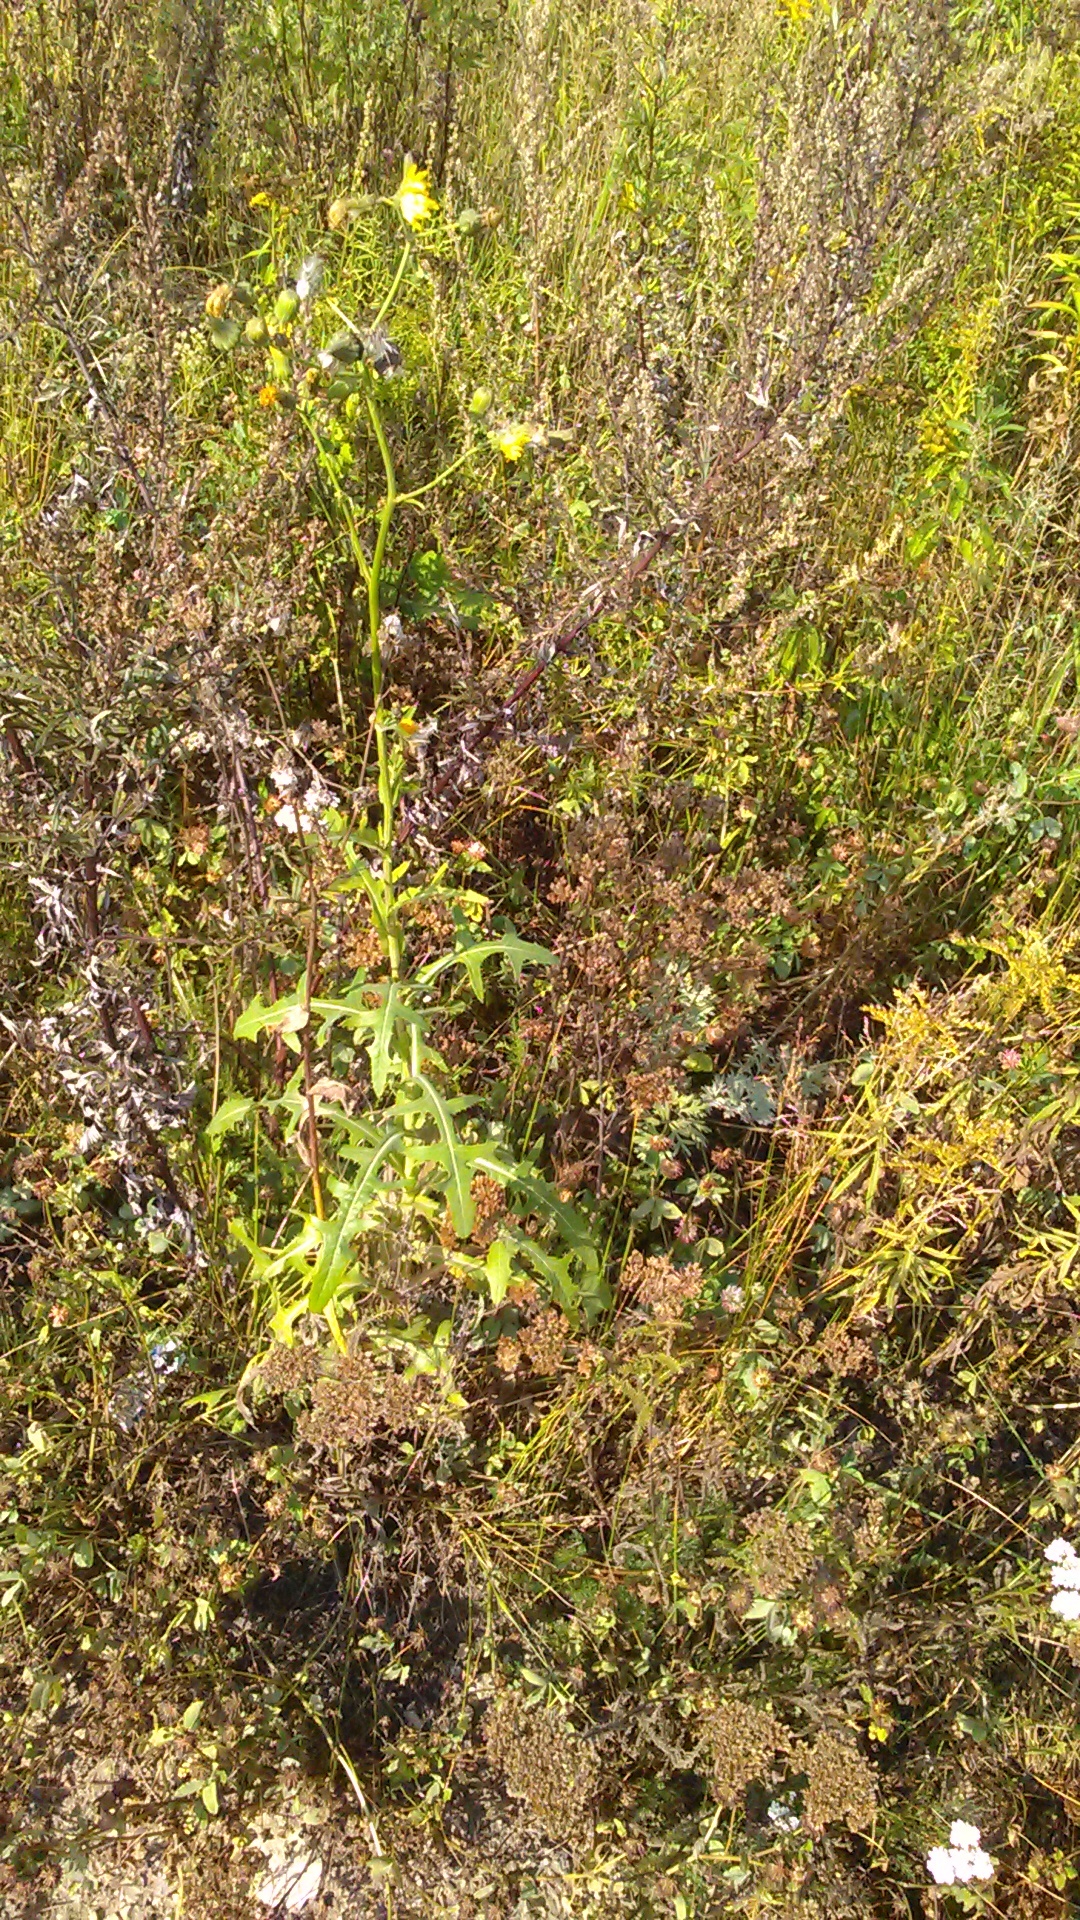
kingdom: Plantae
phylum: Tracheophyta
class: Magnoliopsida
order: Asterales
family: Asteraceae
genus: Sonchus
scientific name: Sonchus arvensis
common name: Perennial sow-thistle
